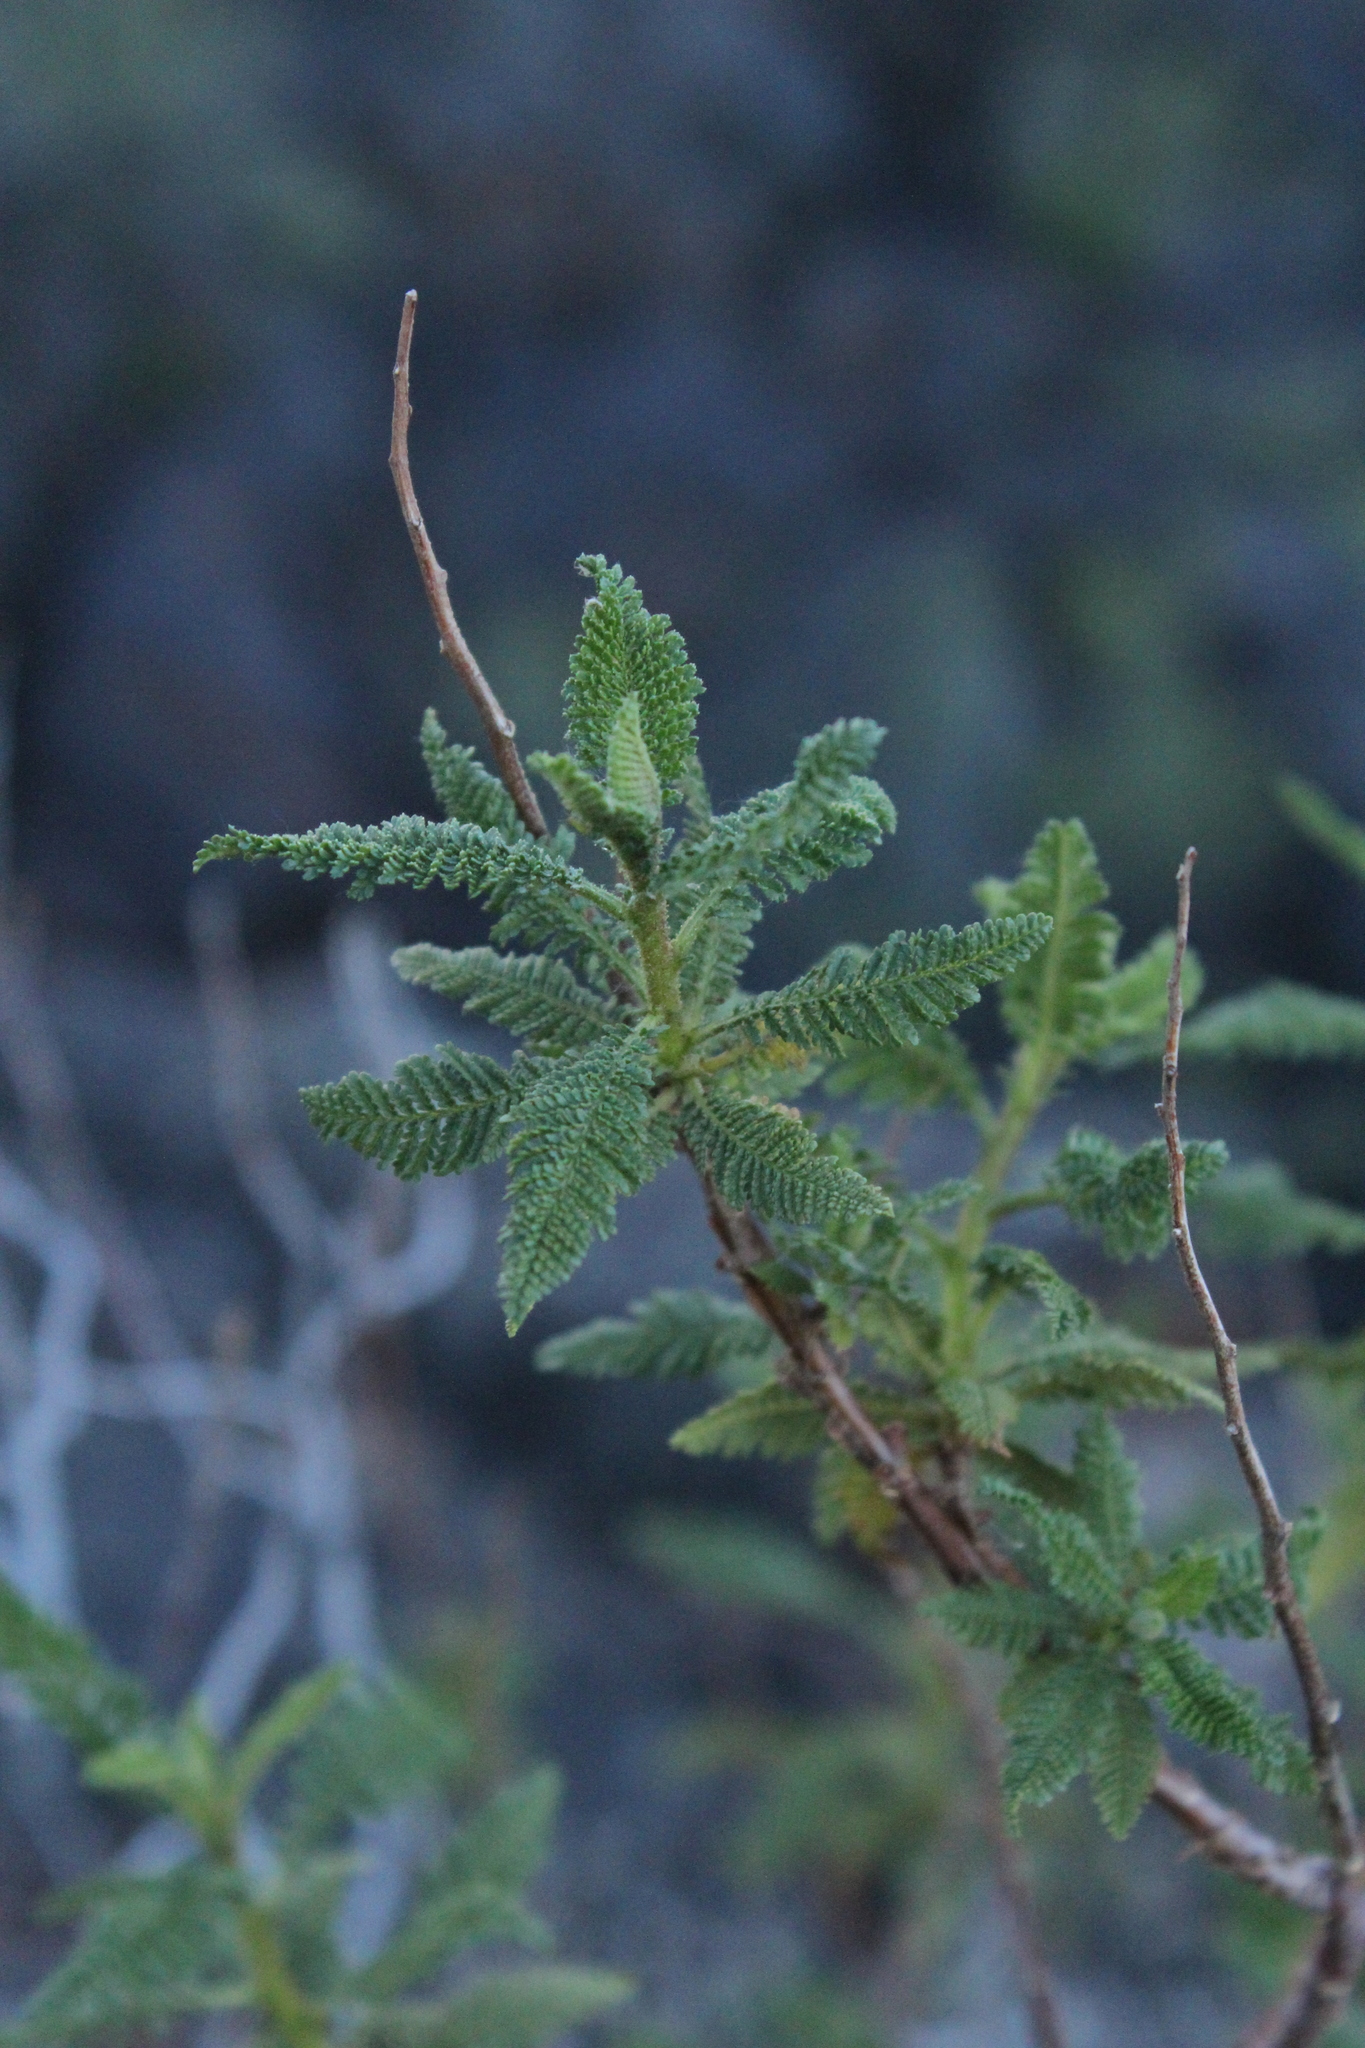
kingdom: Plantae
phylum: Tracheophyta
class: Magnoliopsida
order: Rosales
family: Rosaceae
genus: Chamaebatiaria
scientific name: Chamaebatiaria millefolium
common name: Fernbush
